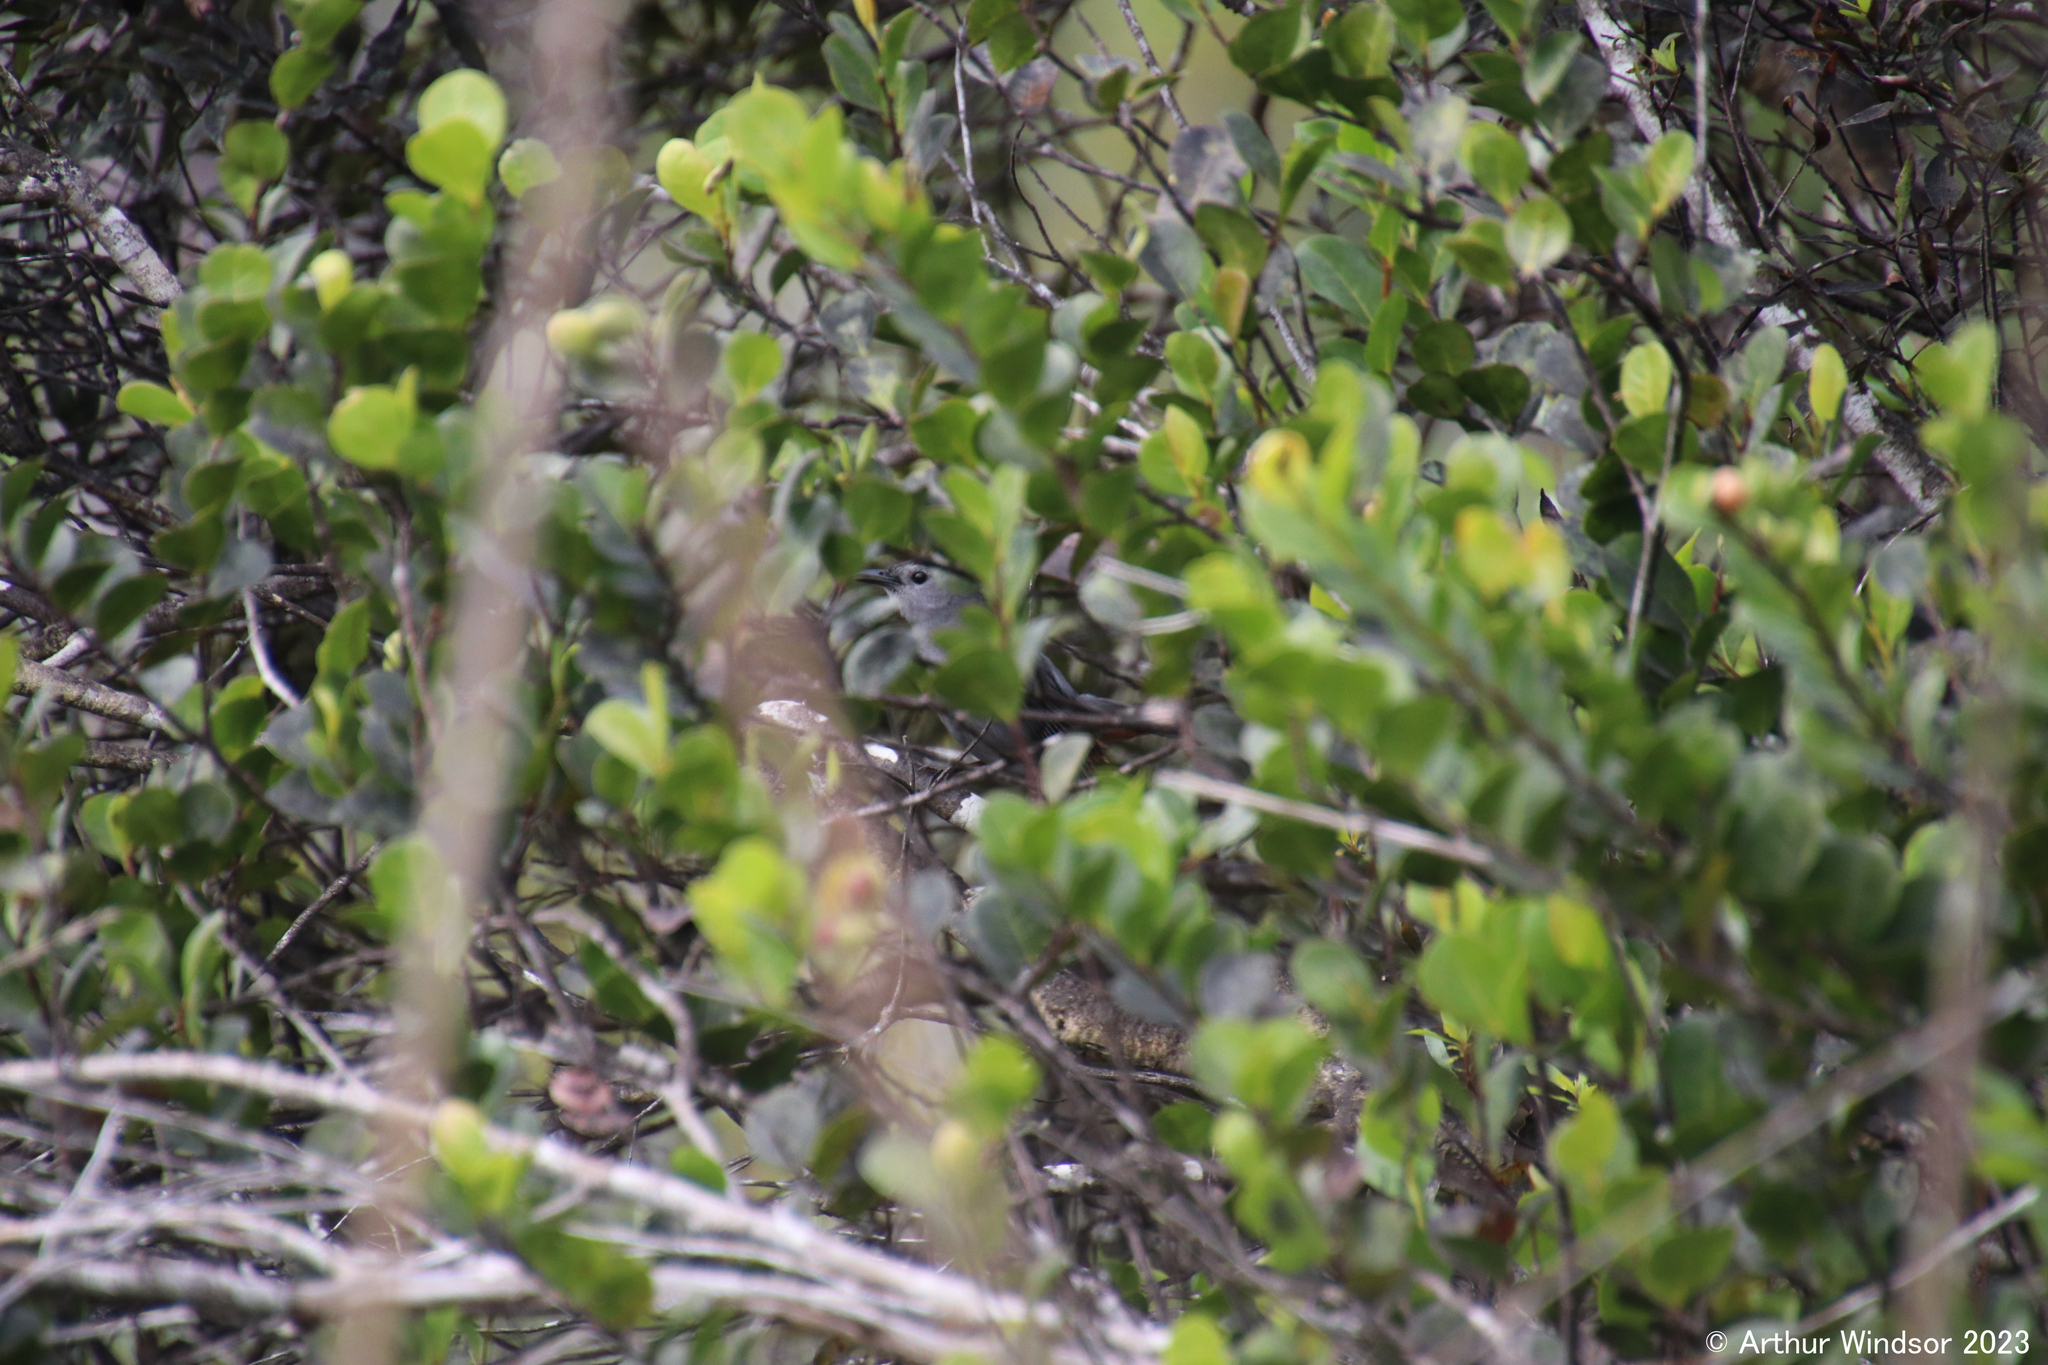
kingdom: Animalia
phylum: Chordata
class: Aves
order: Passeriformes
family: Mimidae
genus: Dumetella
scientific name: Dumetella carolinensis
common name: Gray catbird
